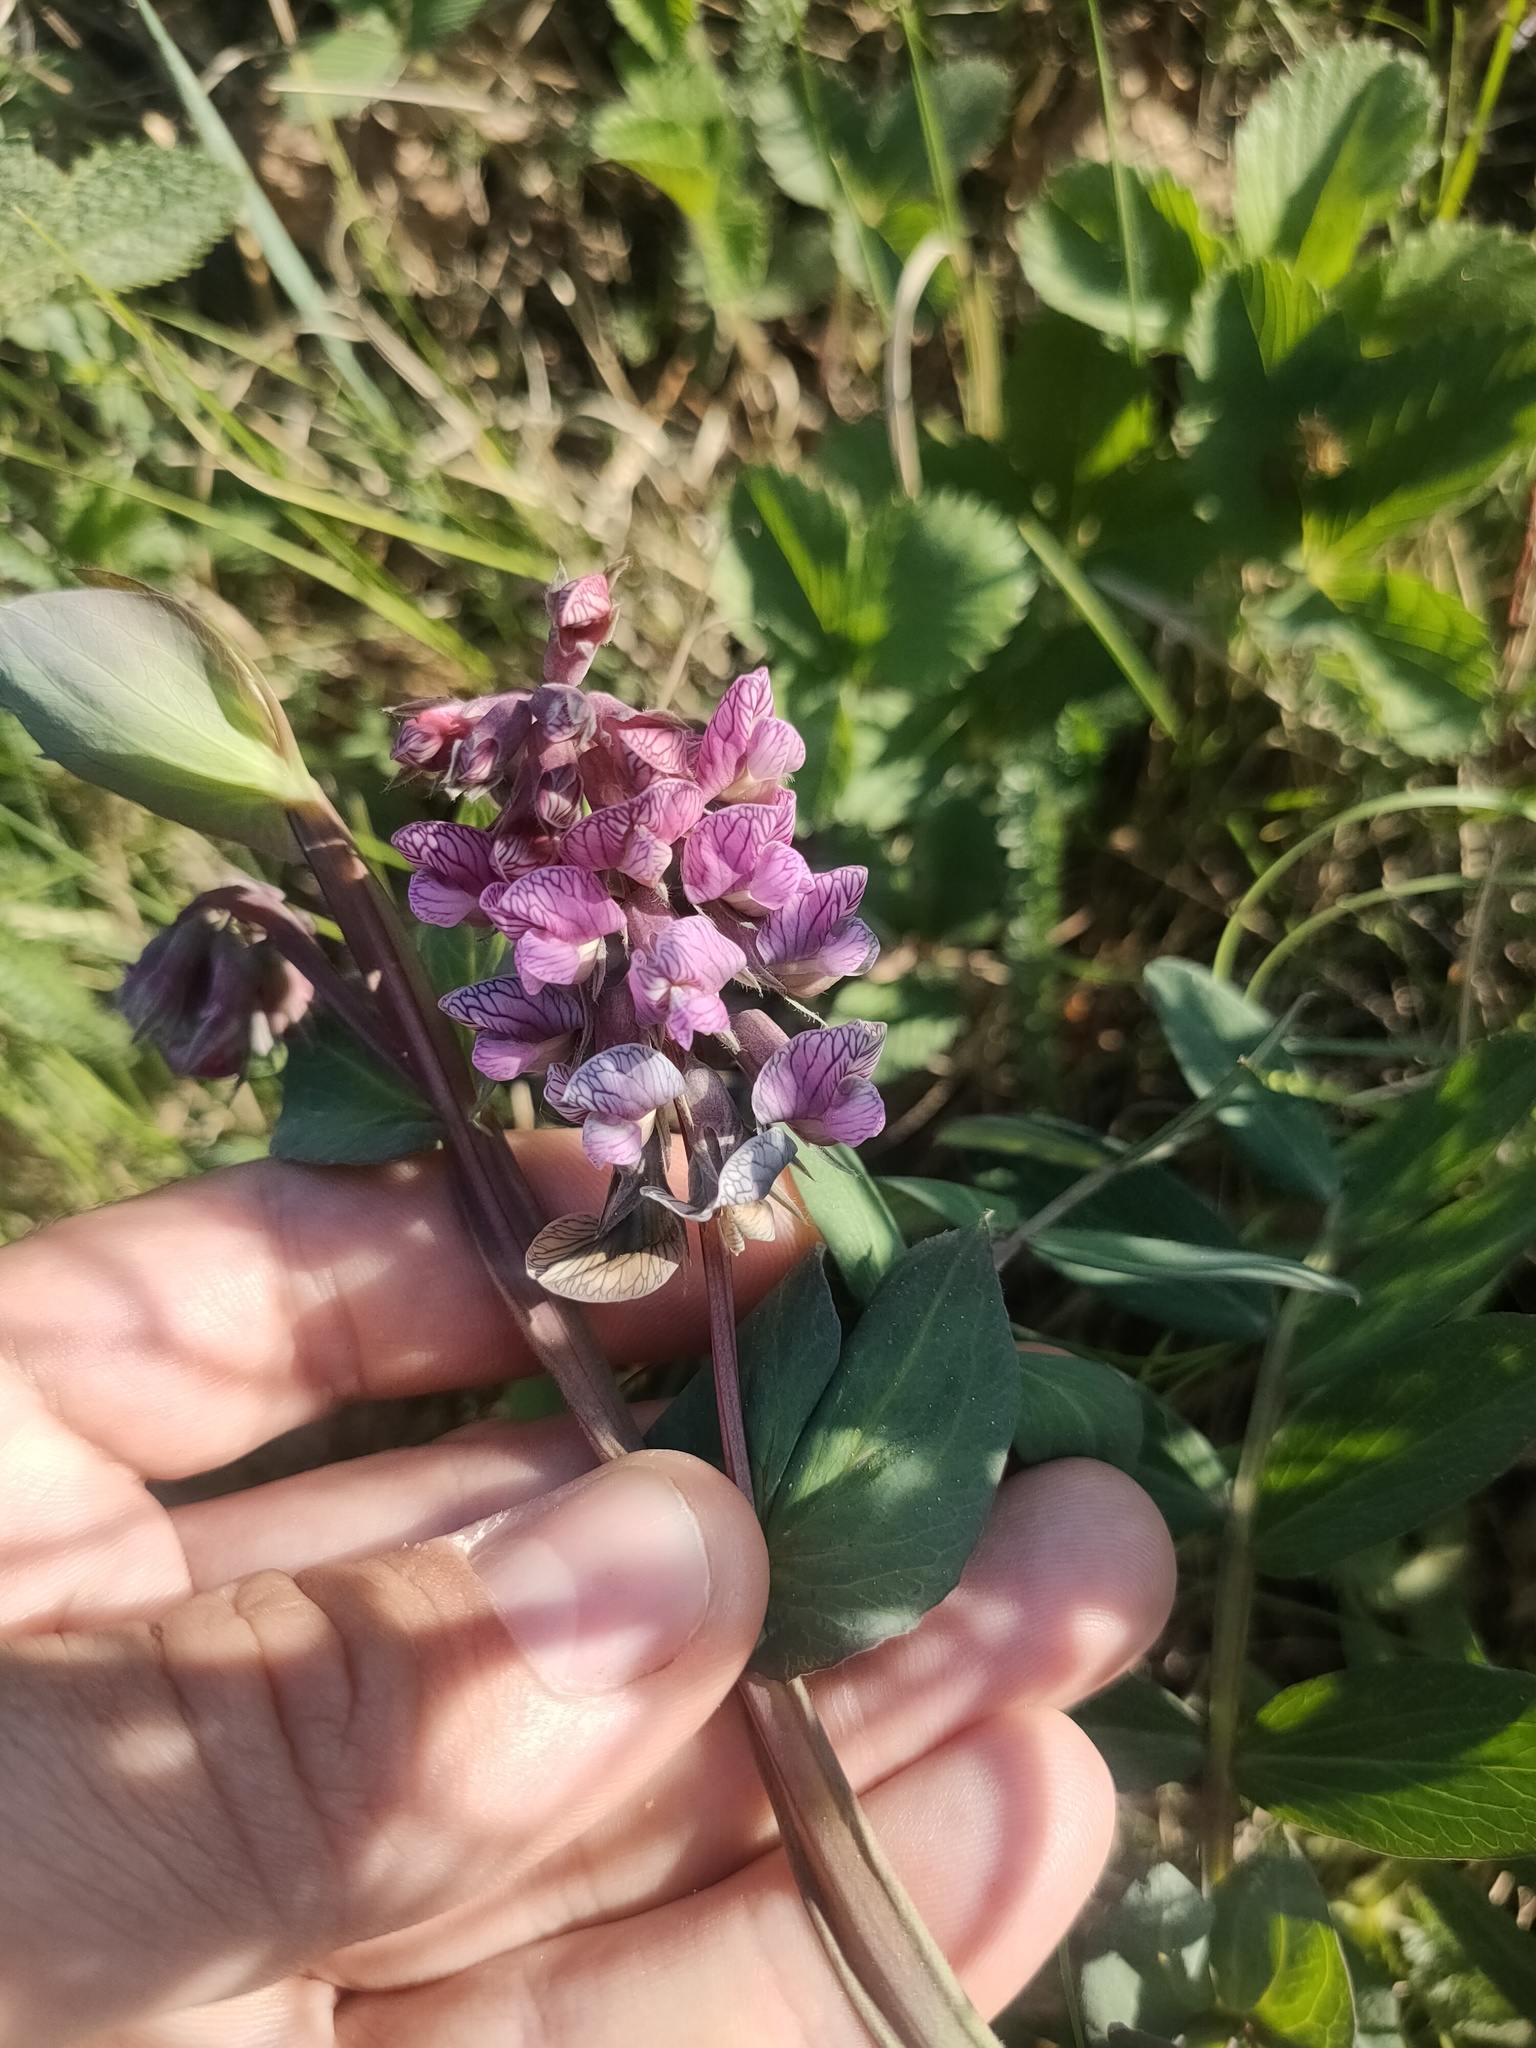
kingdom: Plantae
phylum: Tracheophyta
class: Magnoliopsida
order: Fabales
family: Fabaceae
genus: Lathyrus
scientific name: Lathyrus pisiformis
